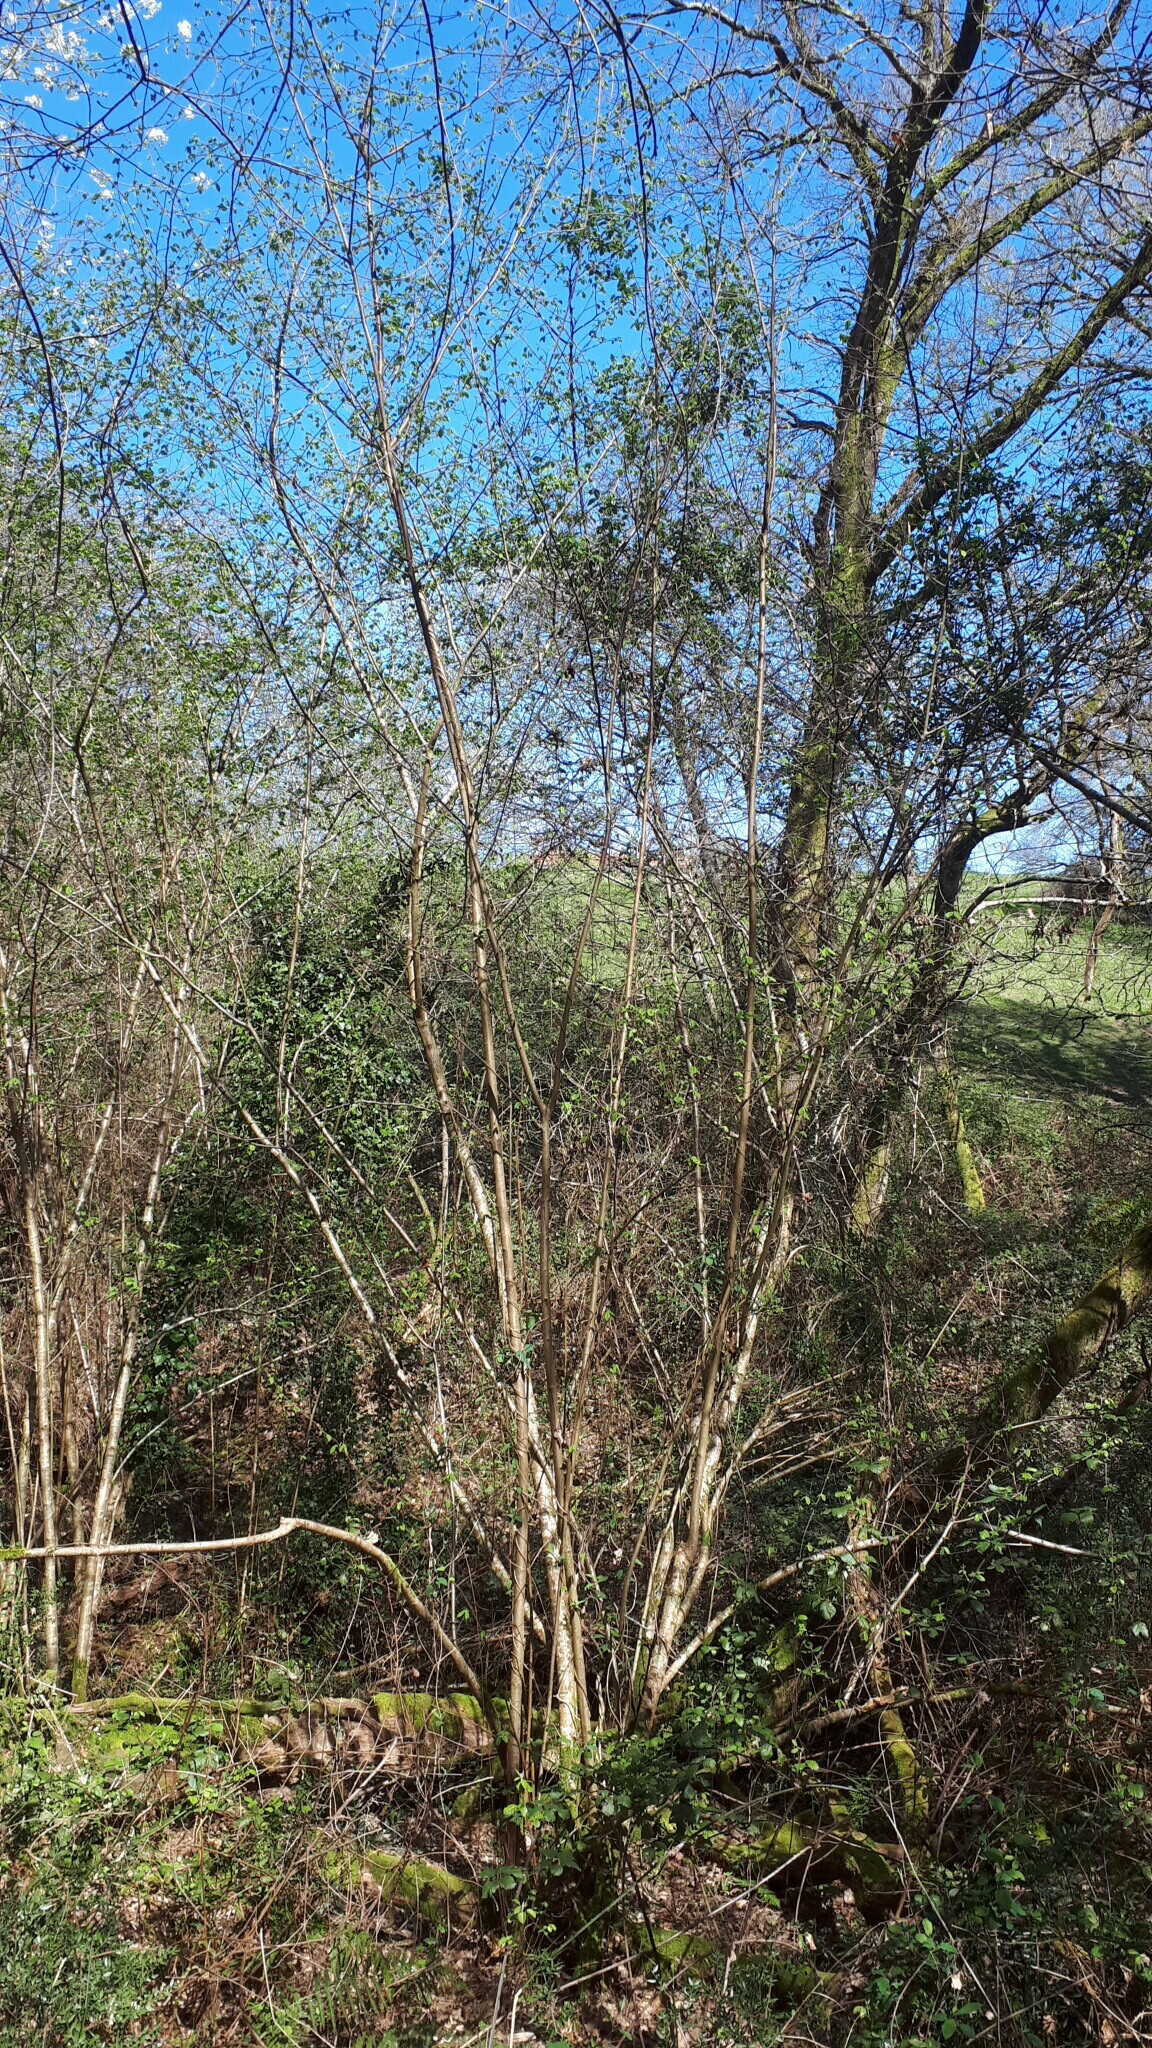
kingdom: Plantae
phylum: Tracheophyta
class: Magnoliopsida
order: Fagales
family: Betulaceae
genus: Corylus
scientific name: Corylus avellana
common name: European hazel
